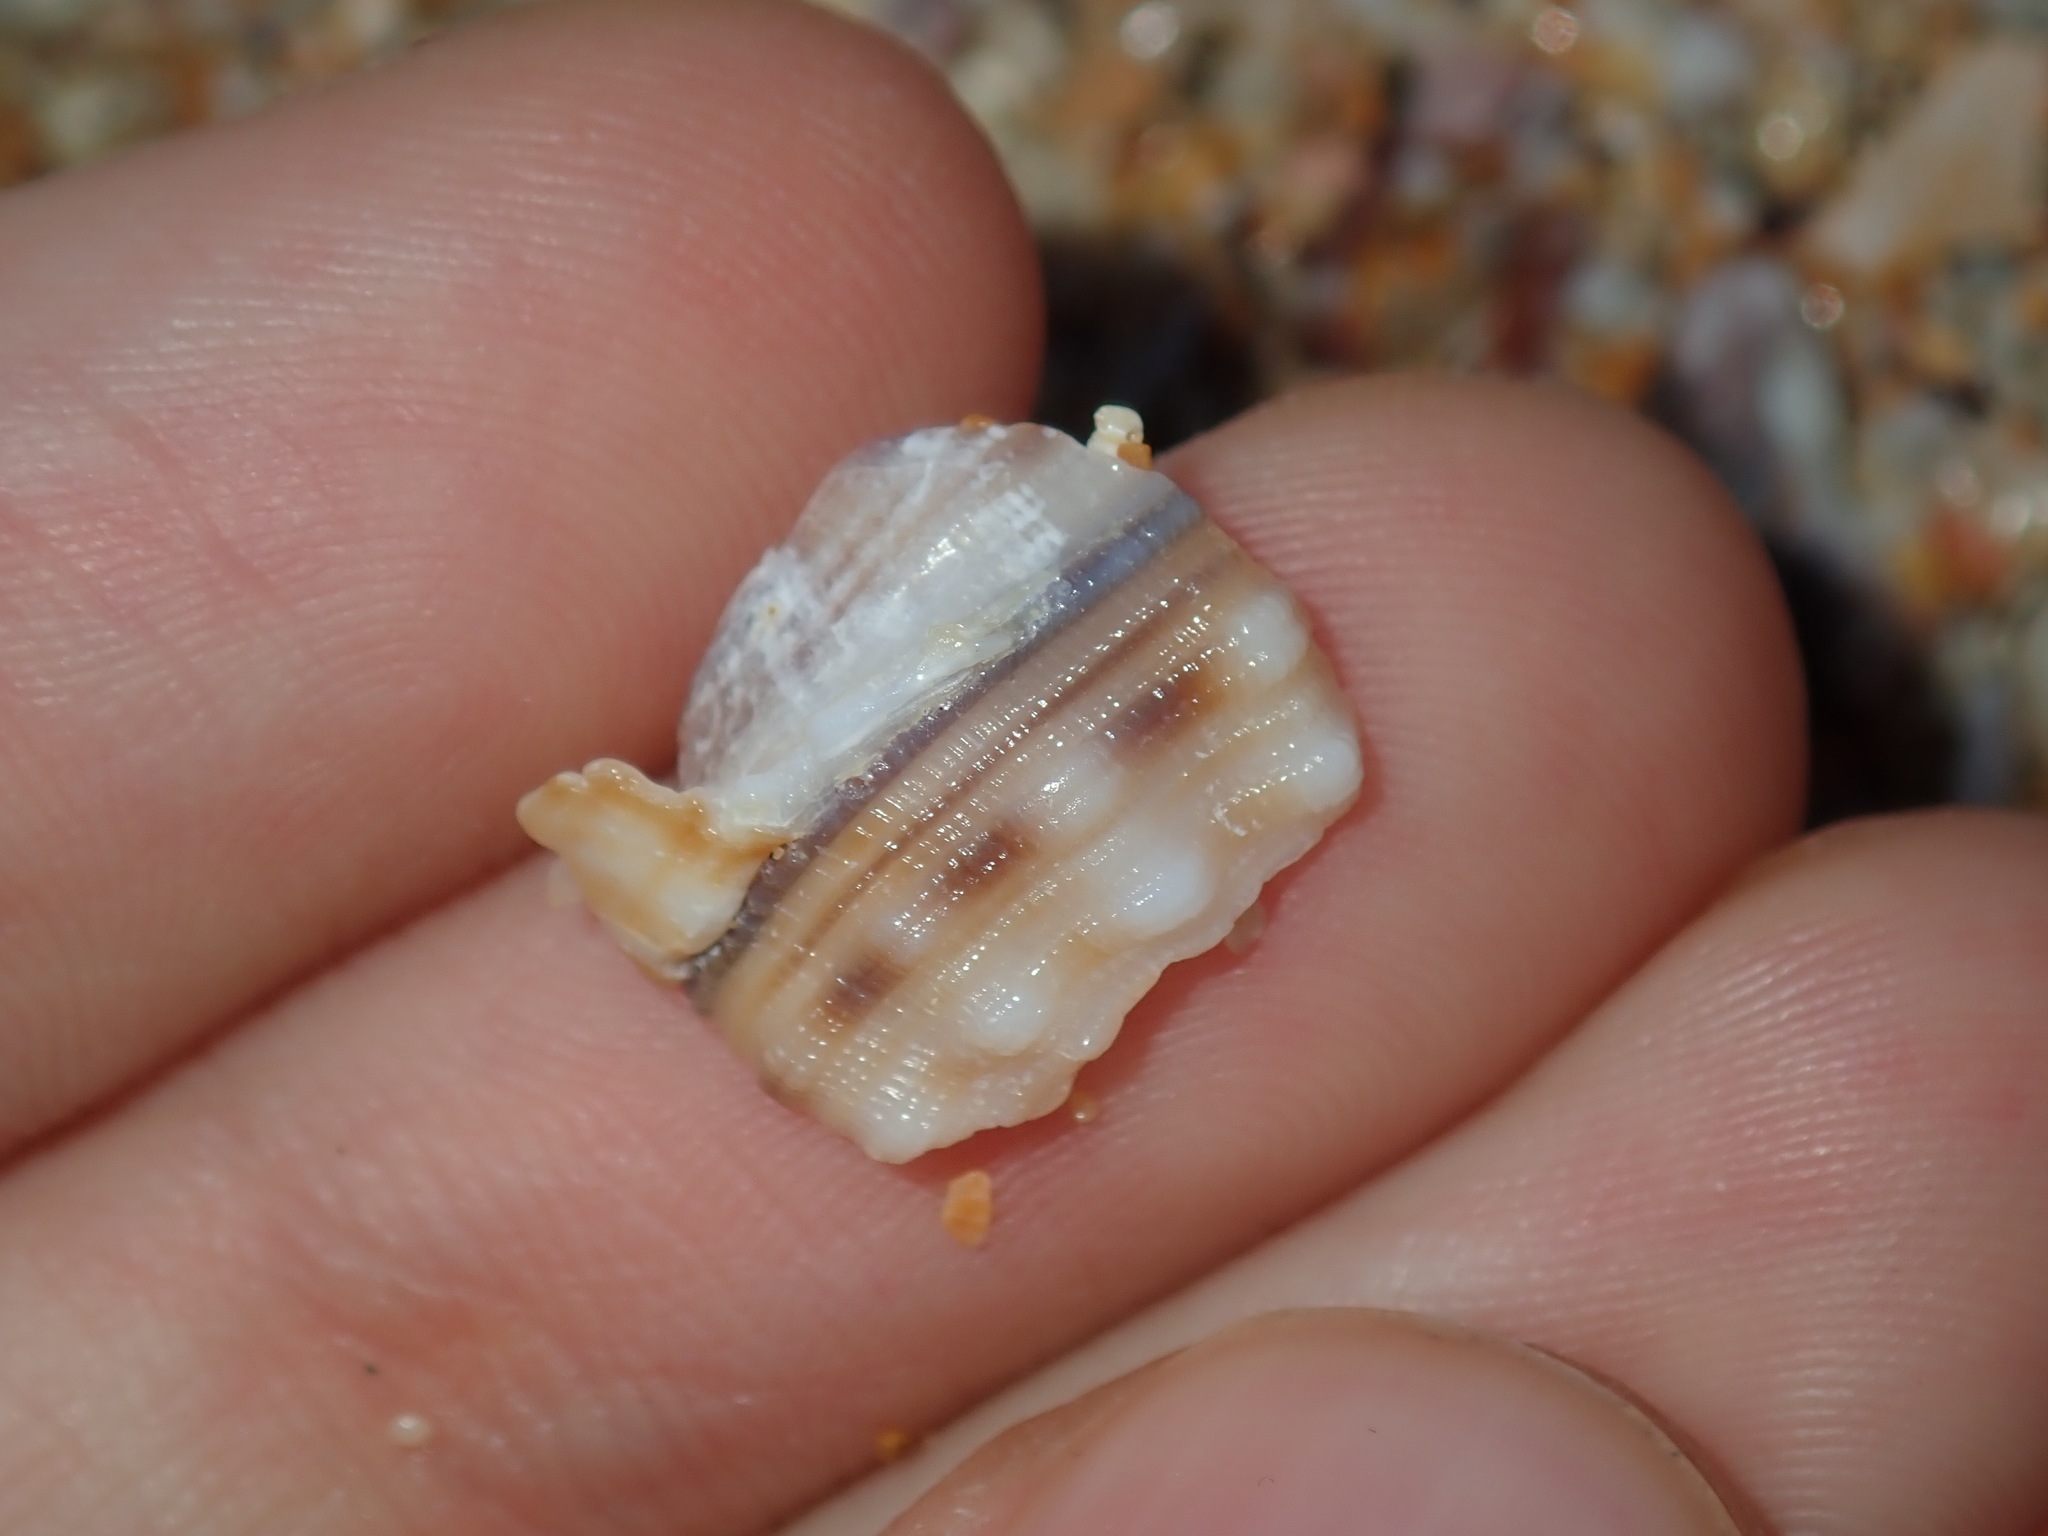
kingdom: Animalia
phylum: Mollusca
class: Gastropoda
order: Littorinimorpha
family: Cymatiidae
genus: Cabestana
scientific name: Cabestana spengleri
